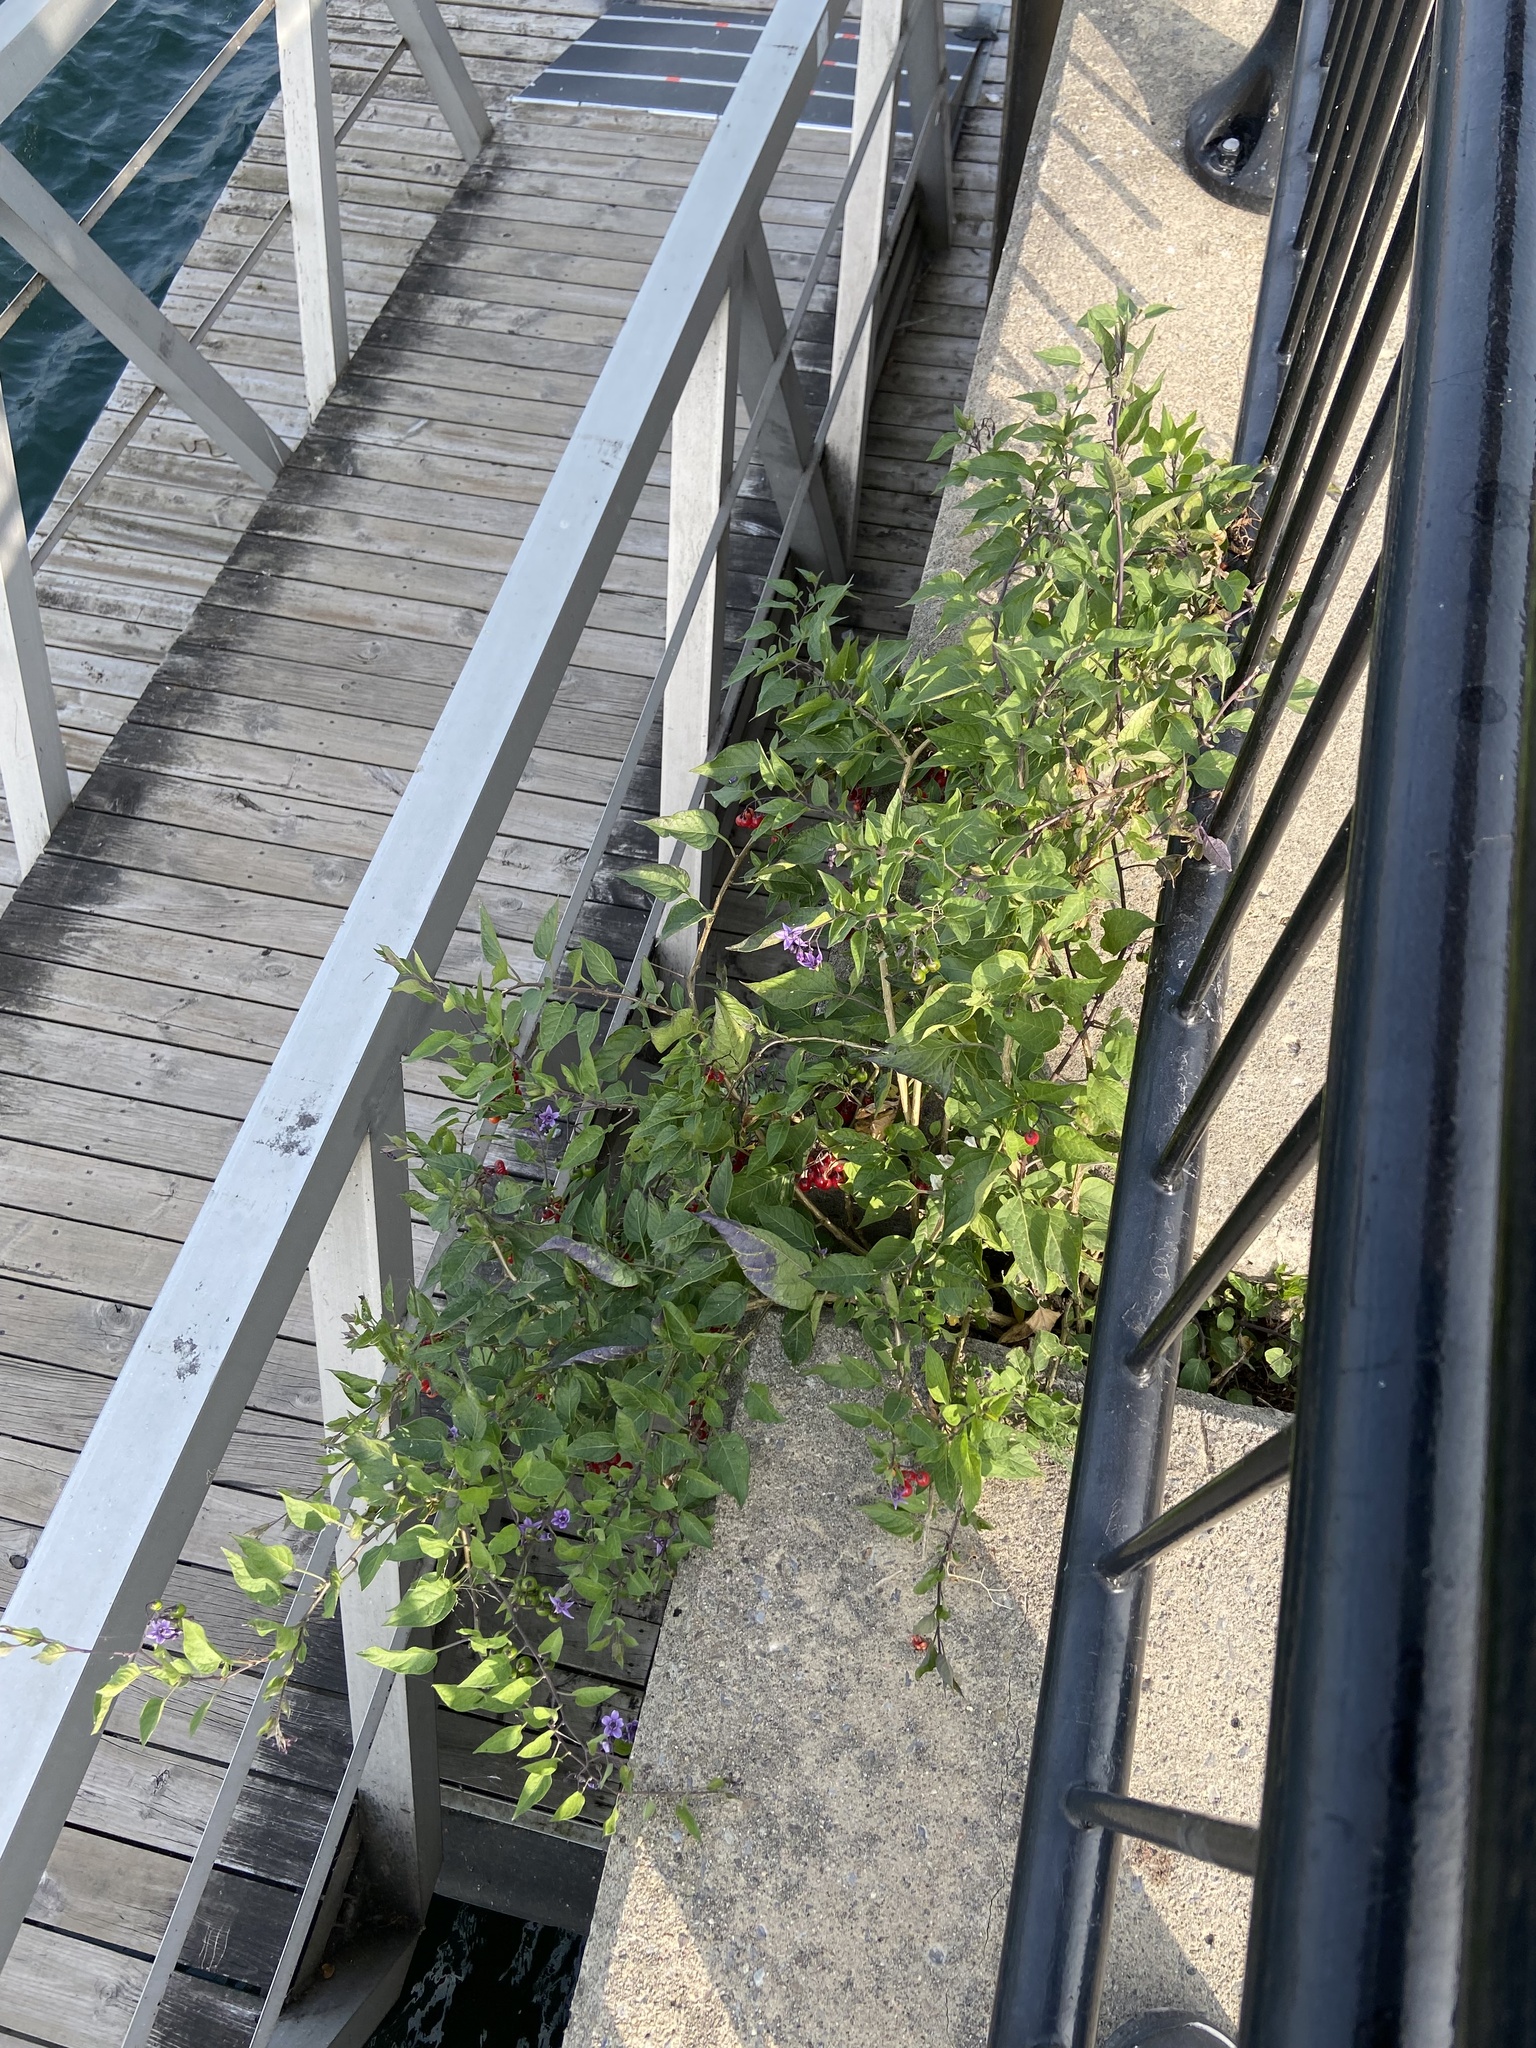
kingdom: Plantae
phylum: Tracheophyta
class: Magnoliopsida
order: Solanales
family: Solanaceae
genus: Solanum
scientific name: Solanum dulcamara
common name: Climbing nightshade
